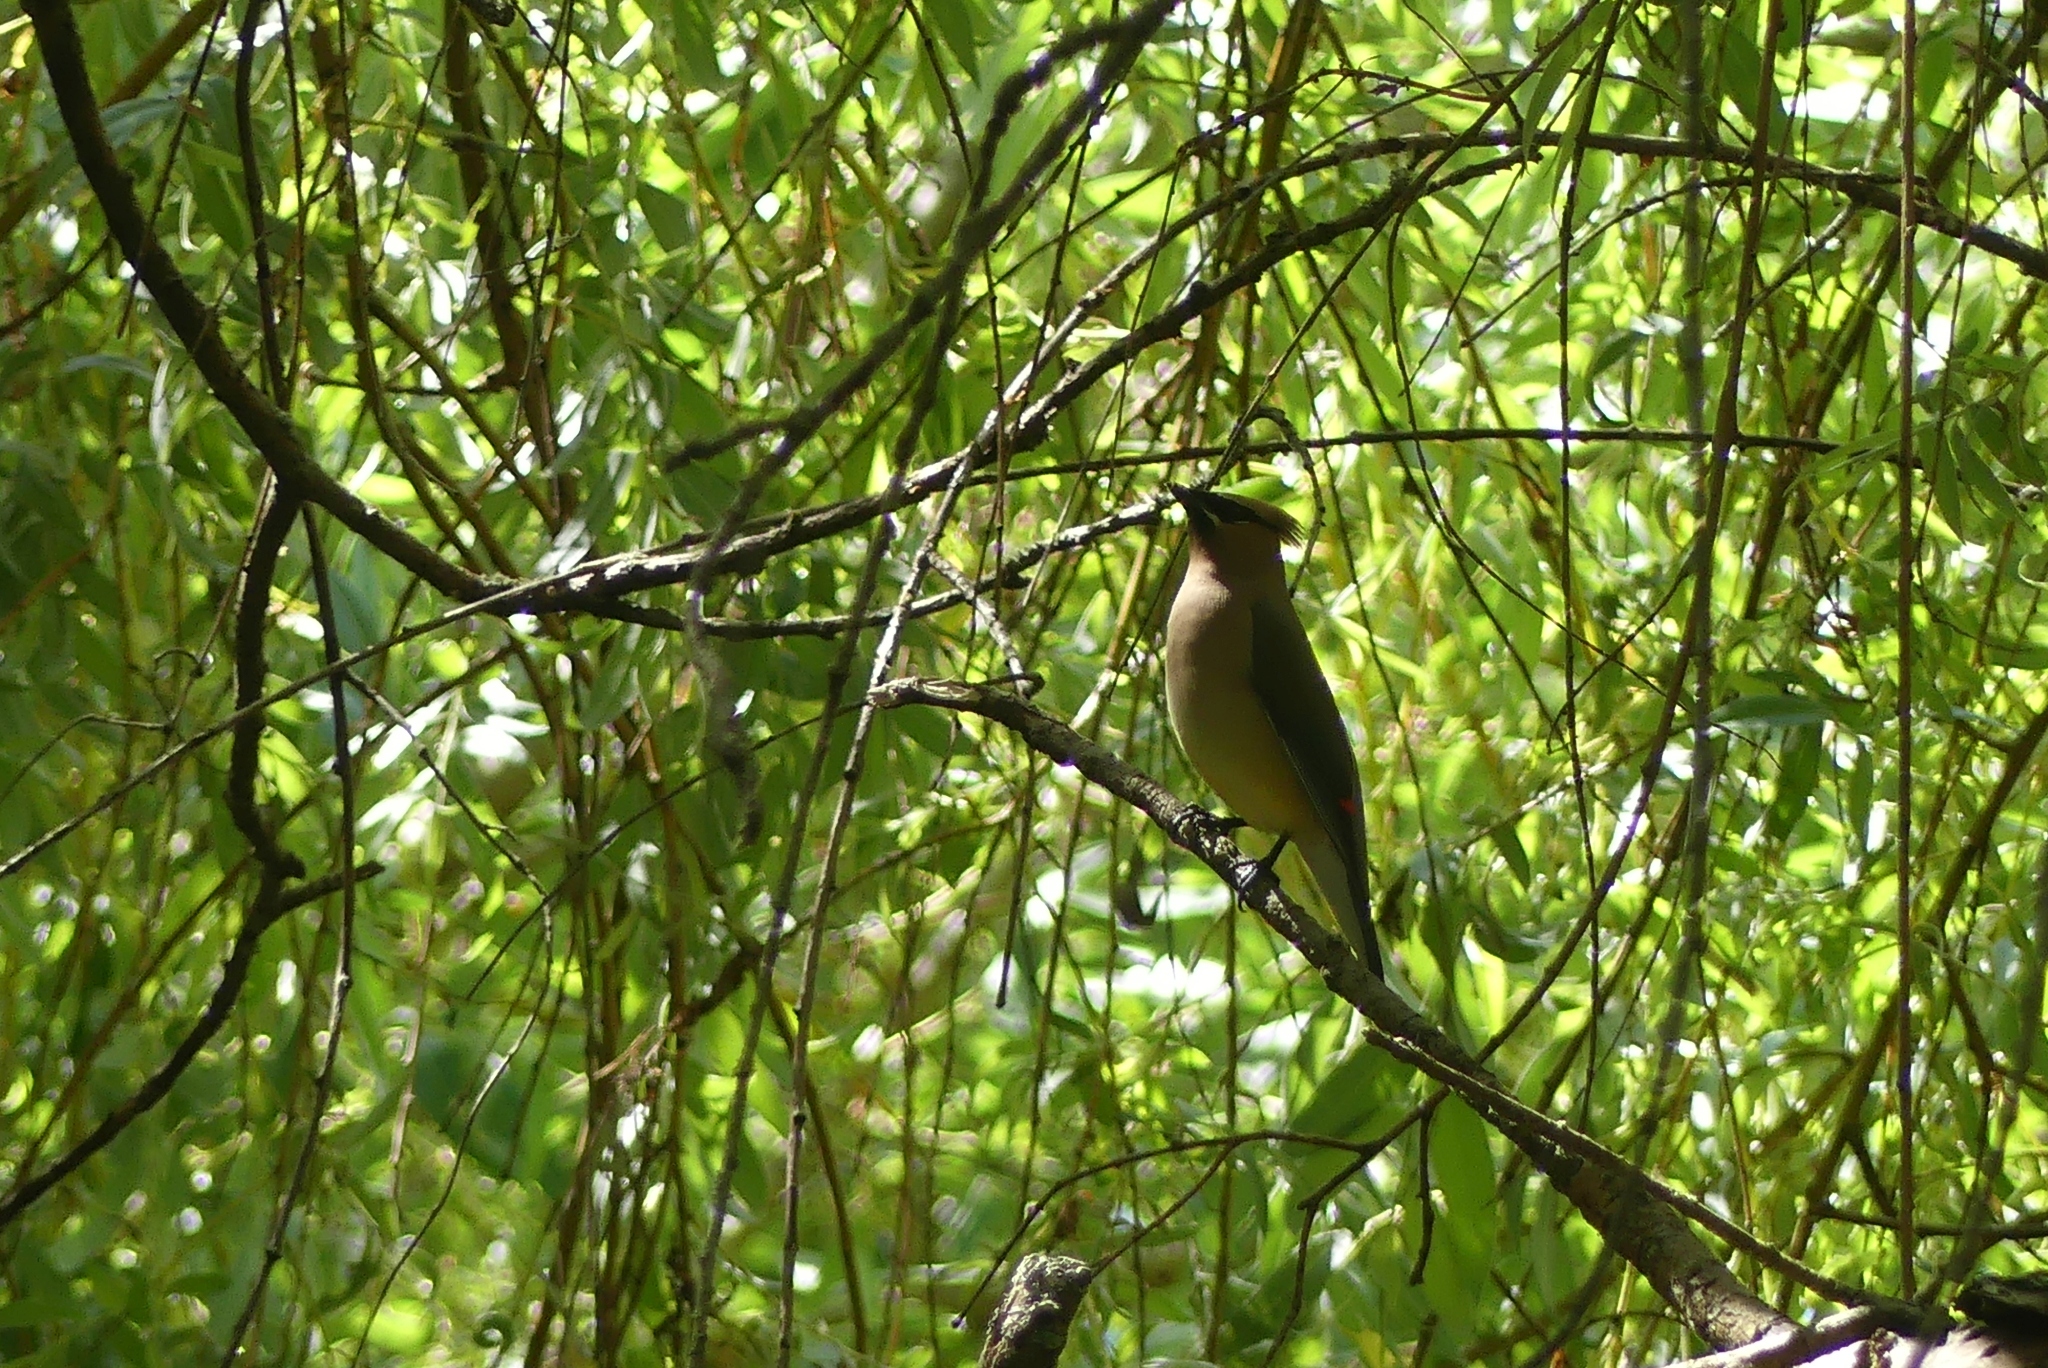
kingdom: Animalia
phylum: Chordata
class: Aves
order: Passeriformes
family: Bombycillidae
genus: Bombycilla
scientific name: Bombycilla cedrorum
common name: Cedar waxwing
